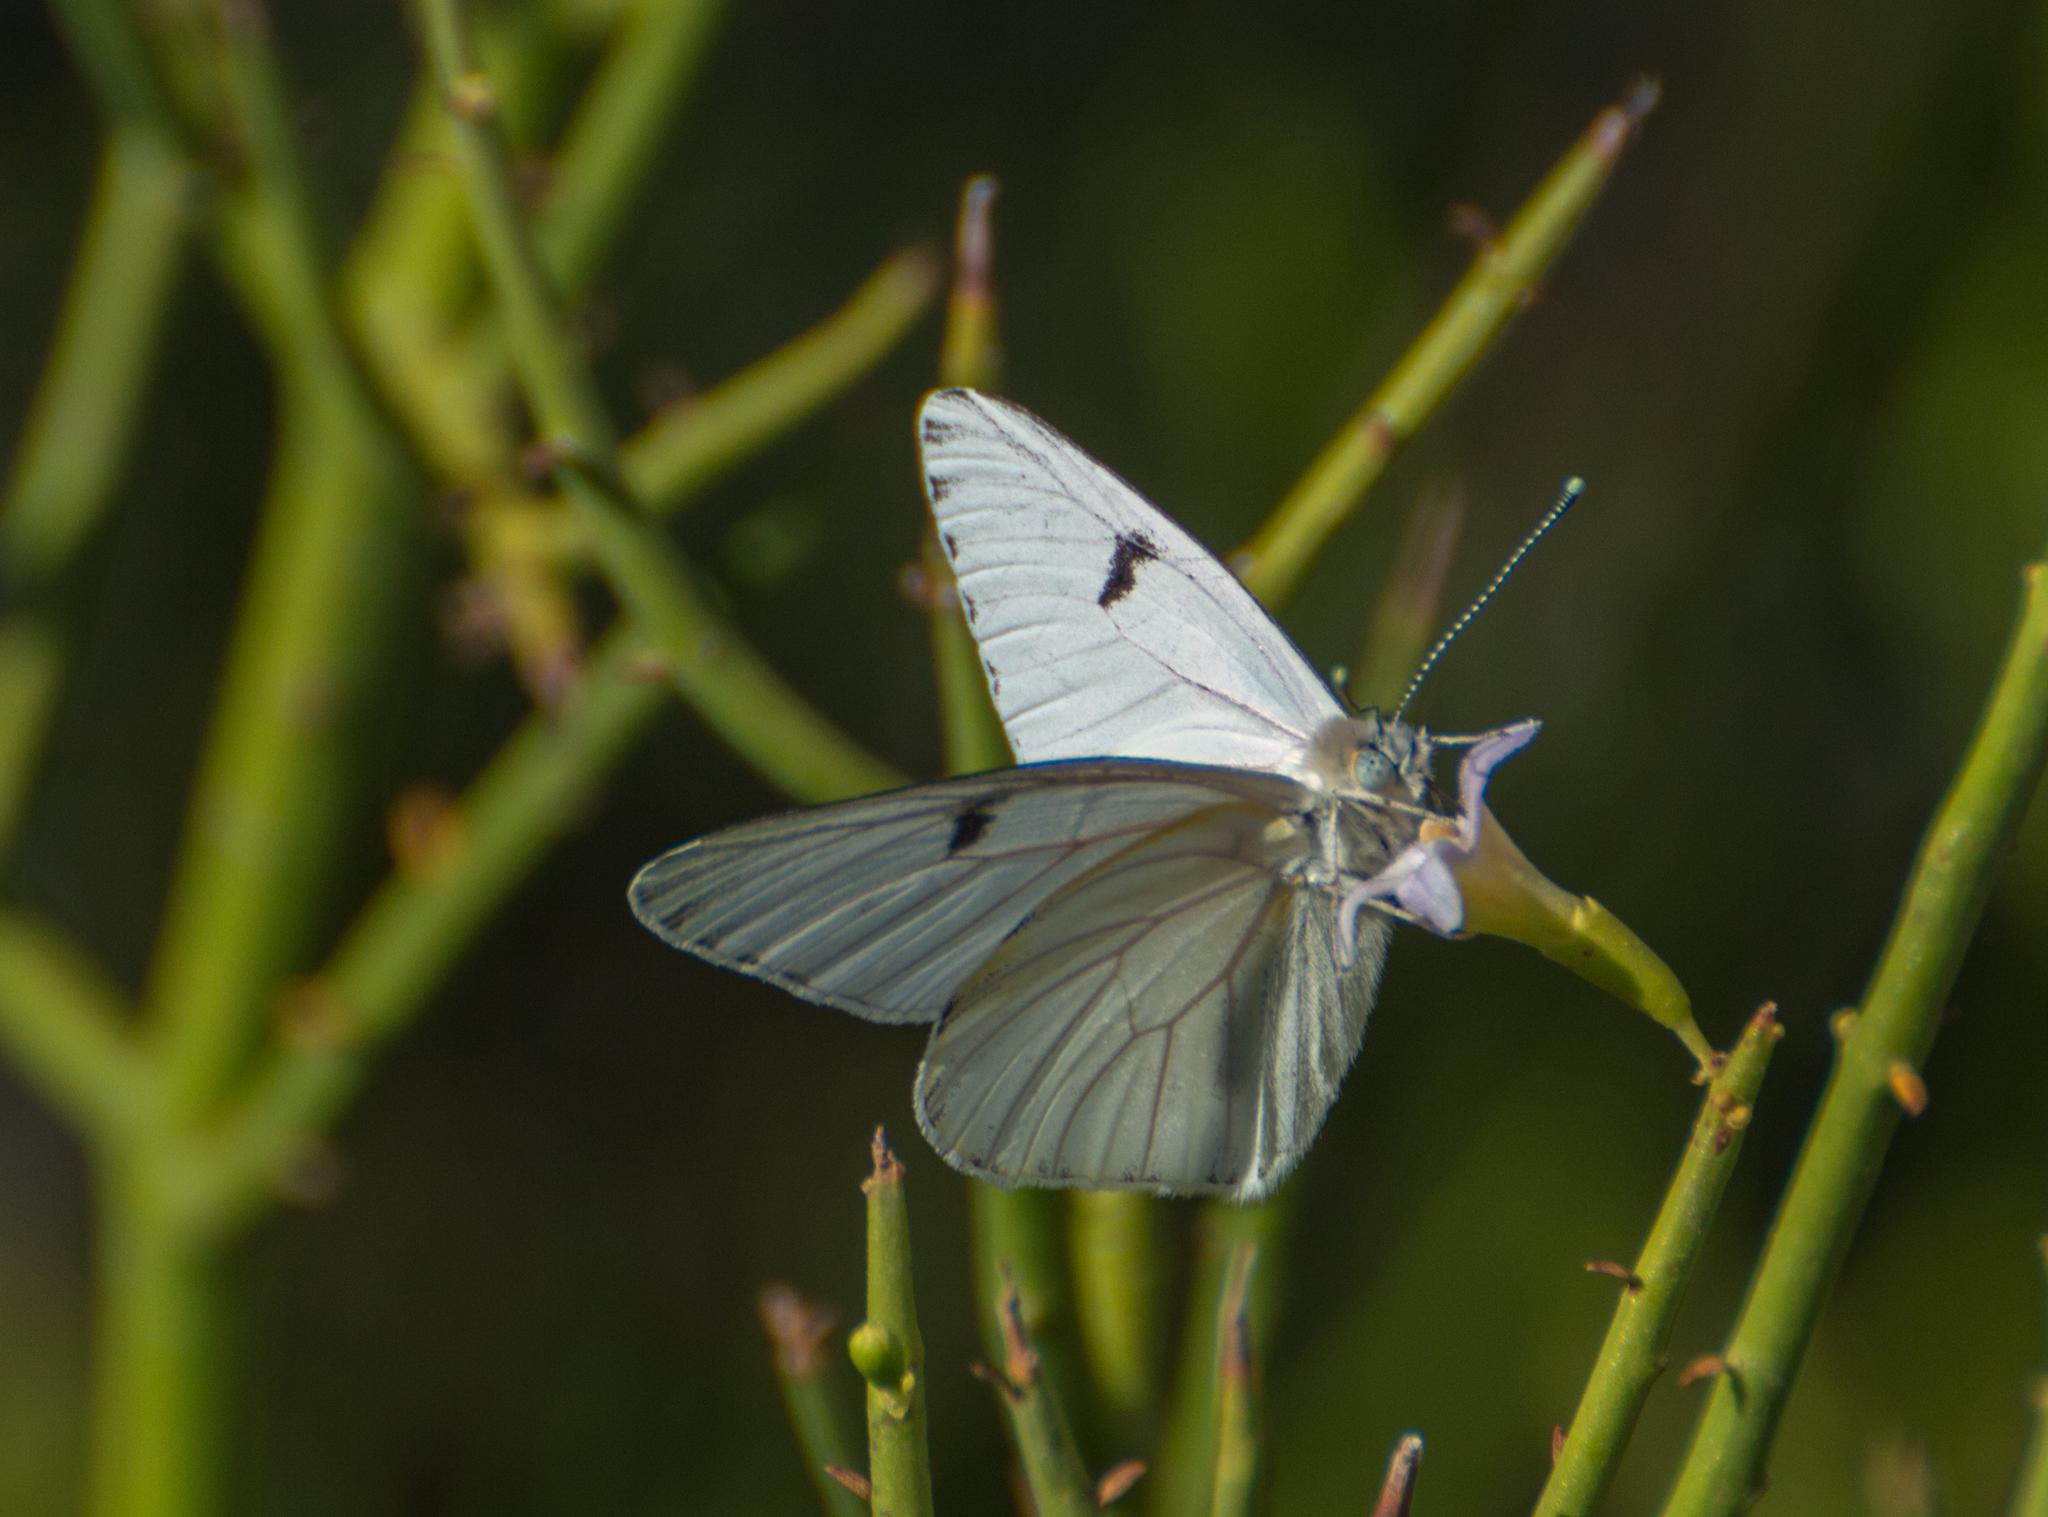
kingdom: Animalia
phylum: Arthropoda
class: Insecta
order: Lepidoptera
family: Pieridae
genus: Tatochila
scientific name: Tatochila mercedis
